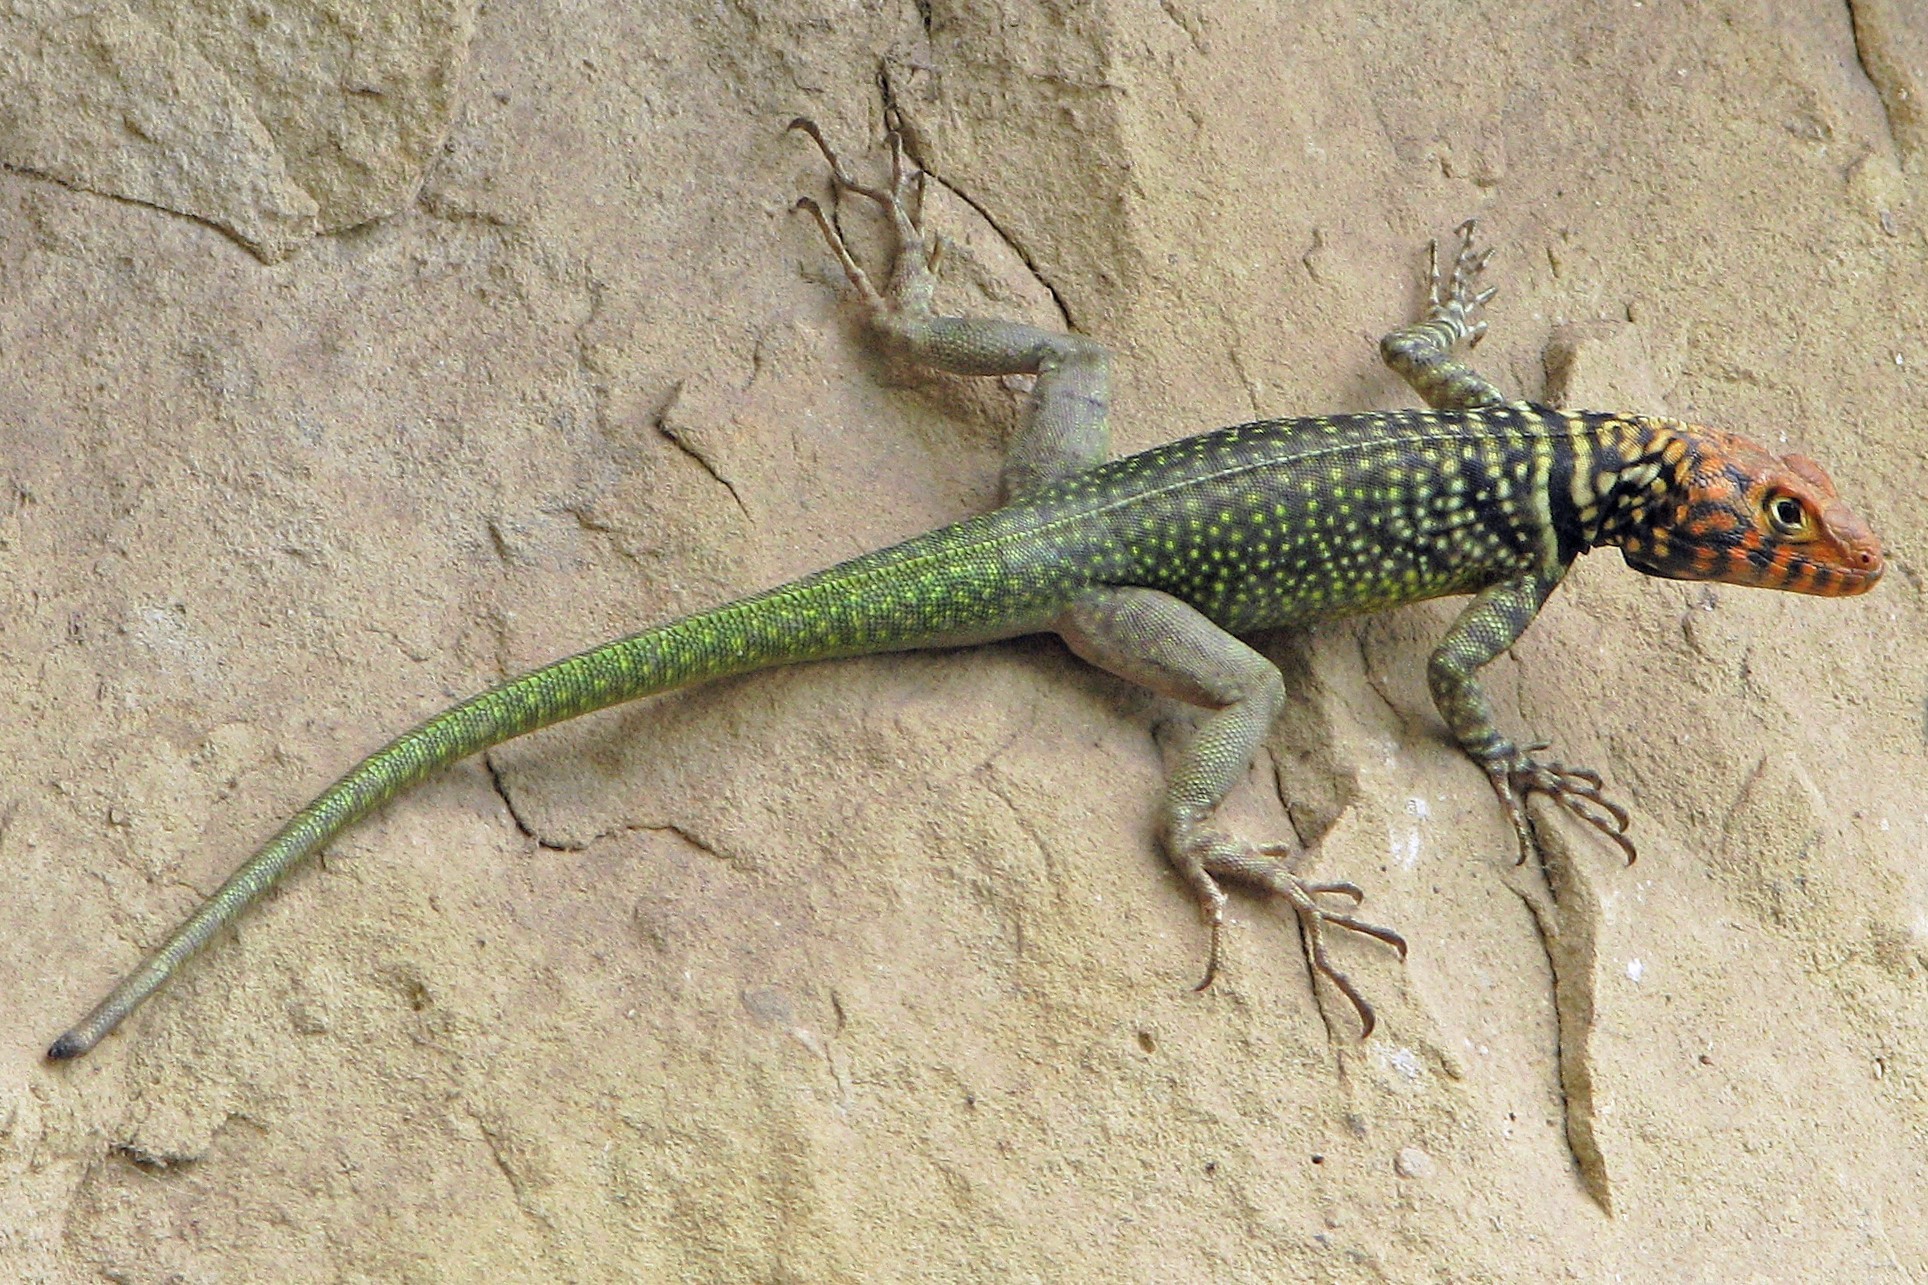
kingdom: Animalia
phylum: Chordata
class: Squamata
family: Tropiduridae
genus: Tropidurus
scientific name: Tropidurus melanopleurus
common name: Black lava lizard
